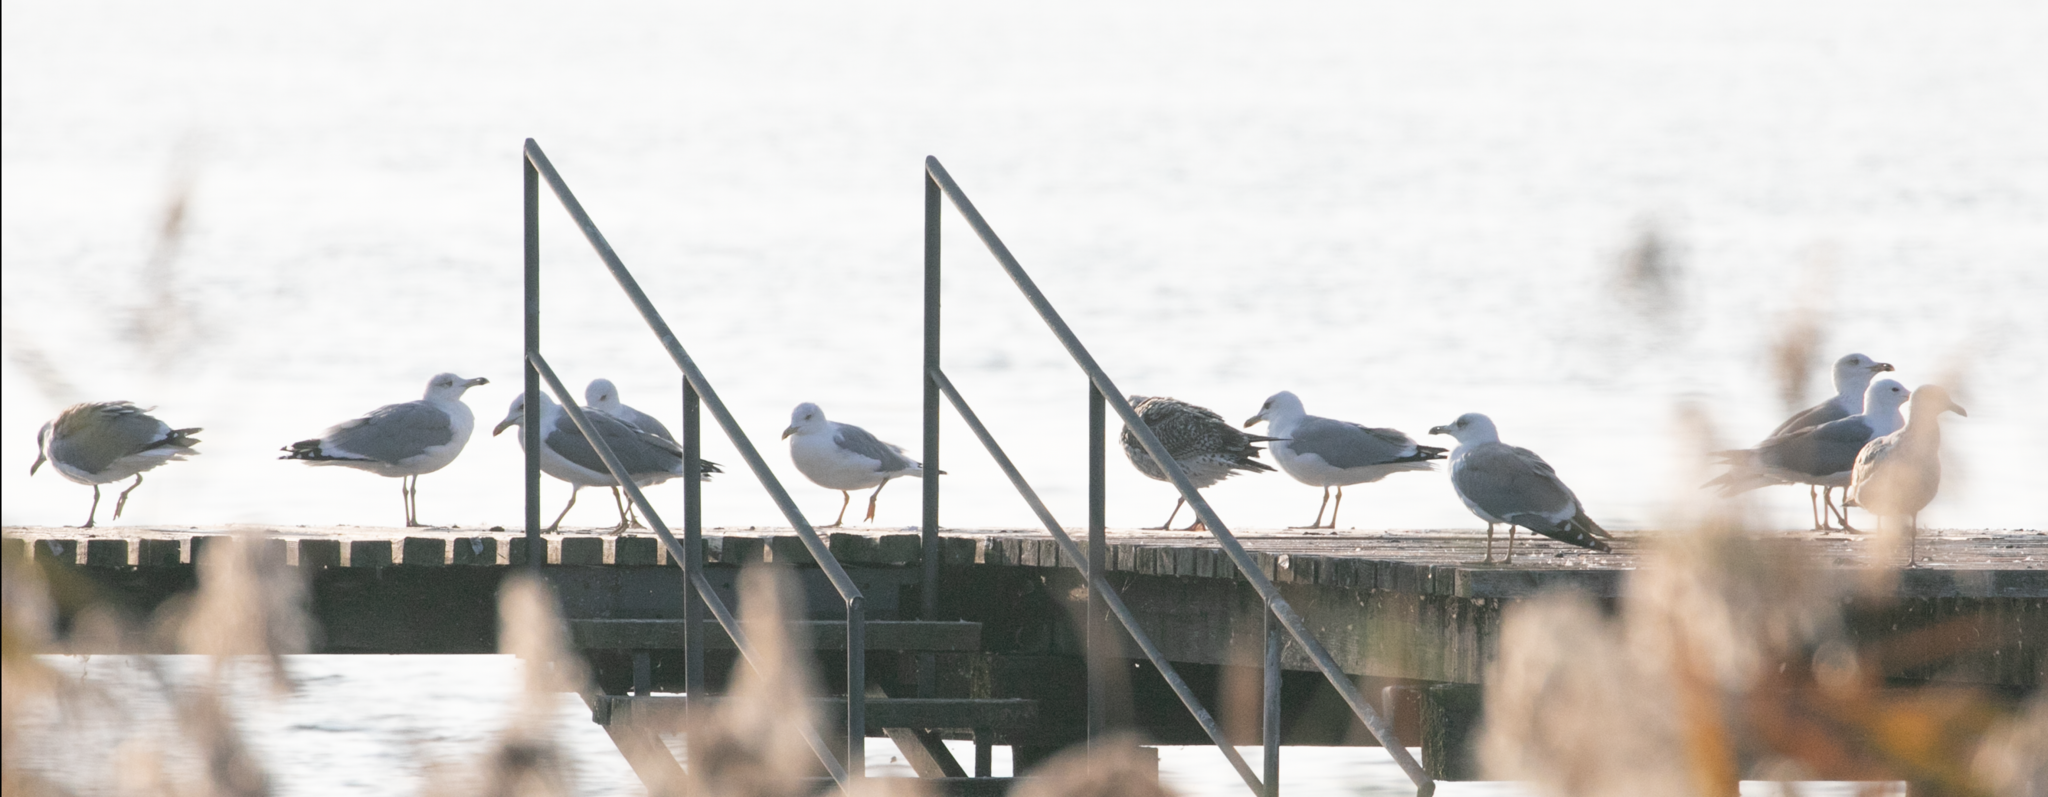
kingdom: Animalia
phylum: Chordata
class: Aves
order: Charadriiformes
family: Laridae
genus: Larus
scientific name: Larus michahellis
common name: Yellow-legged gull
